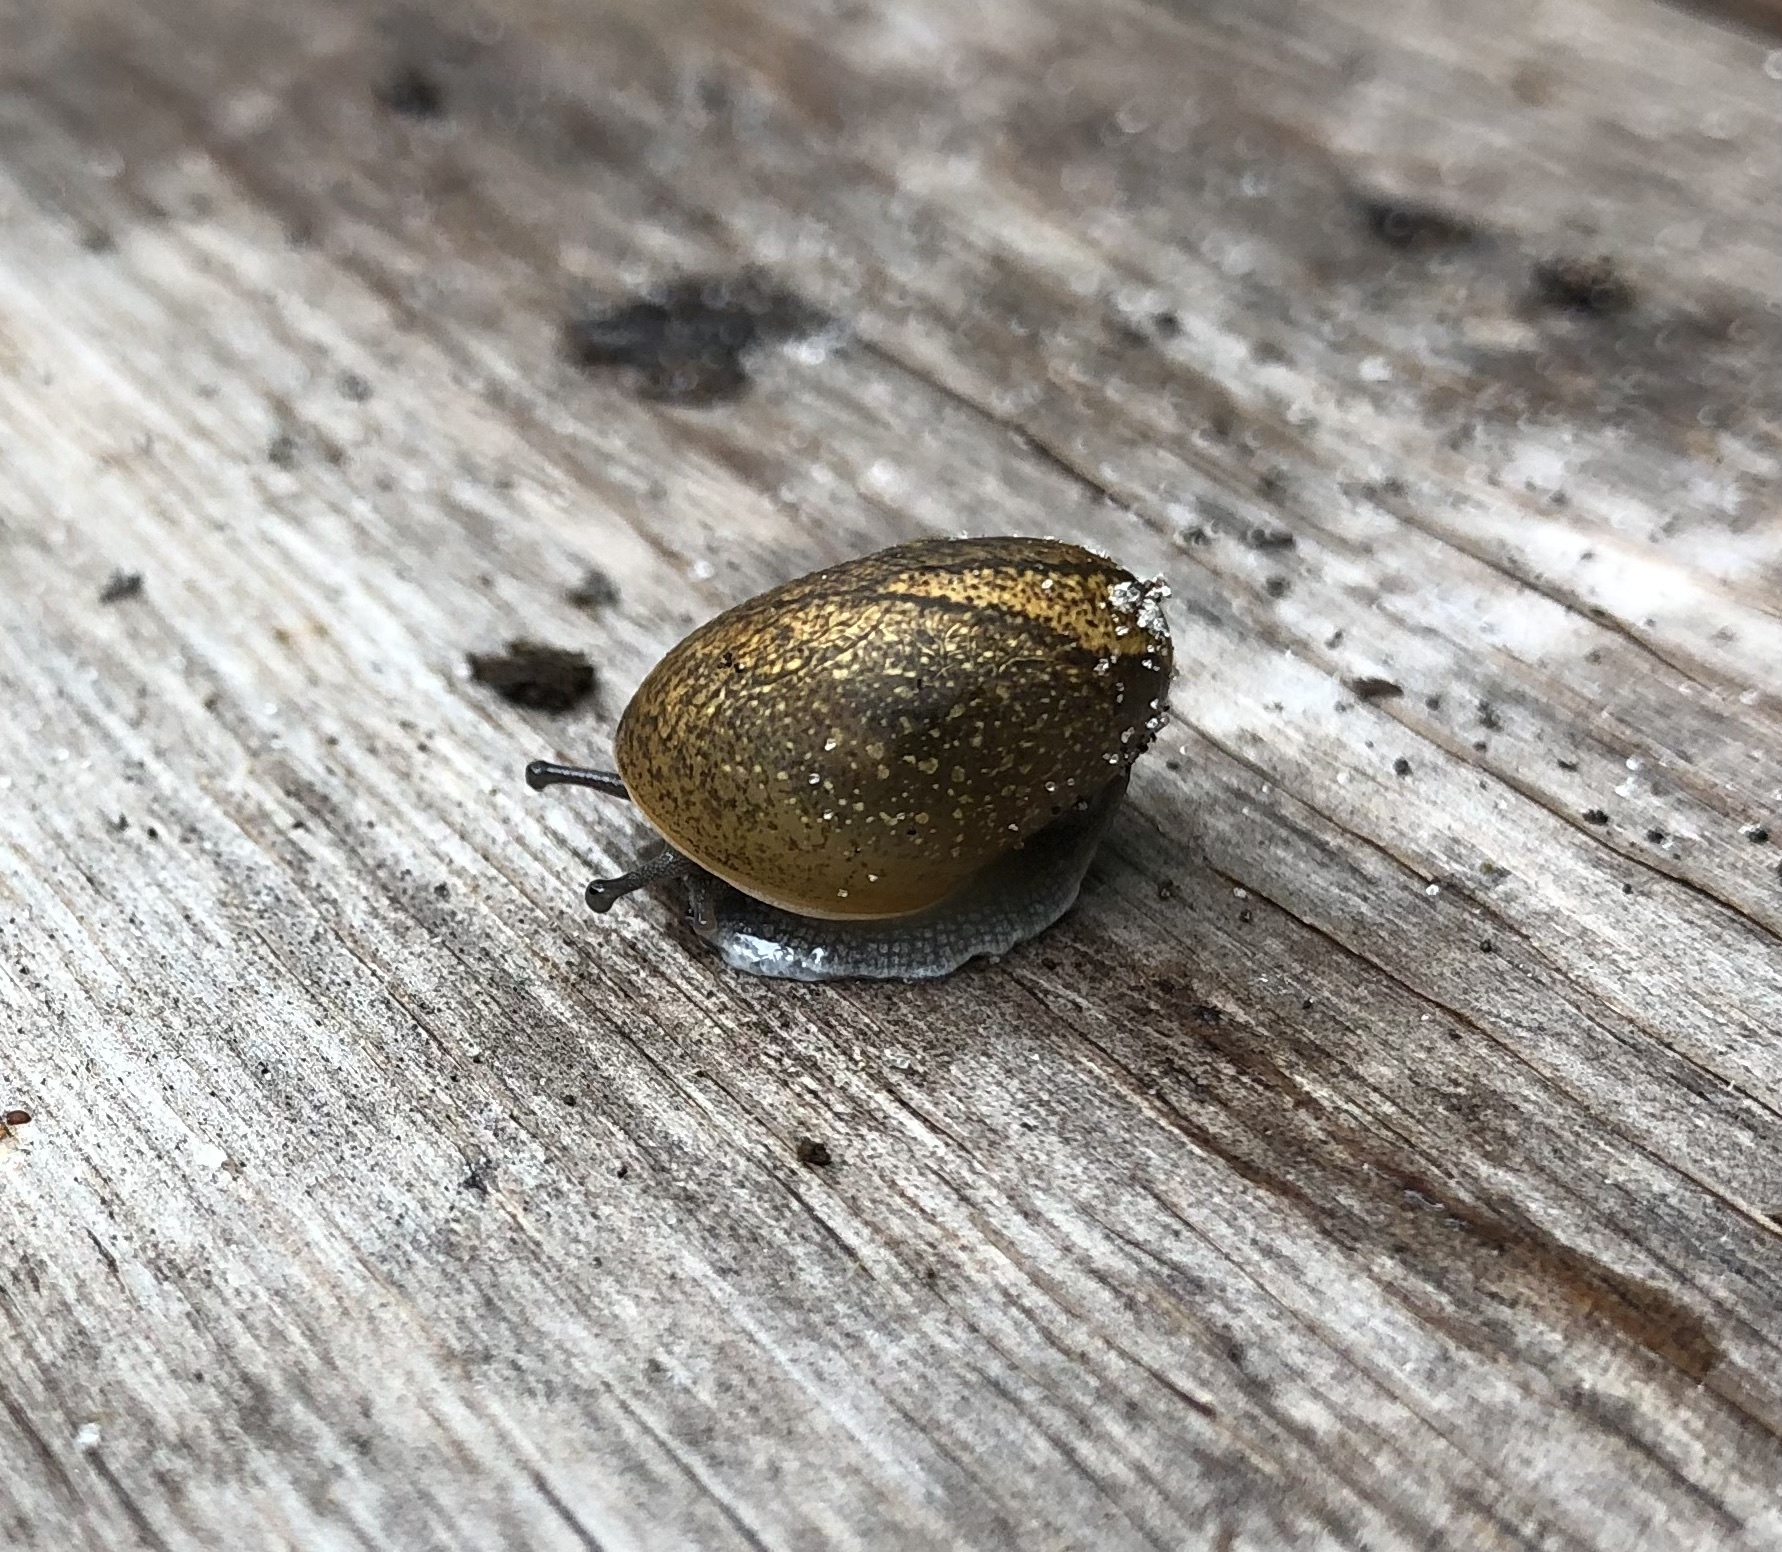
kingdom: Animalia
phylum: Mollusca
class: Gastropoda
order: Stylommatophora
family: Zachrysiidae
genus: Zachrysia
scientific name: Zachrysia provisoria
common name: Garden zachrysia
